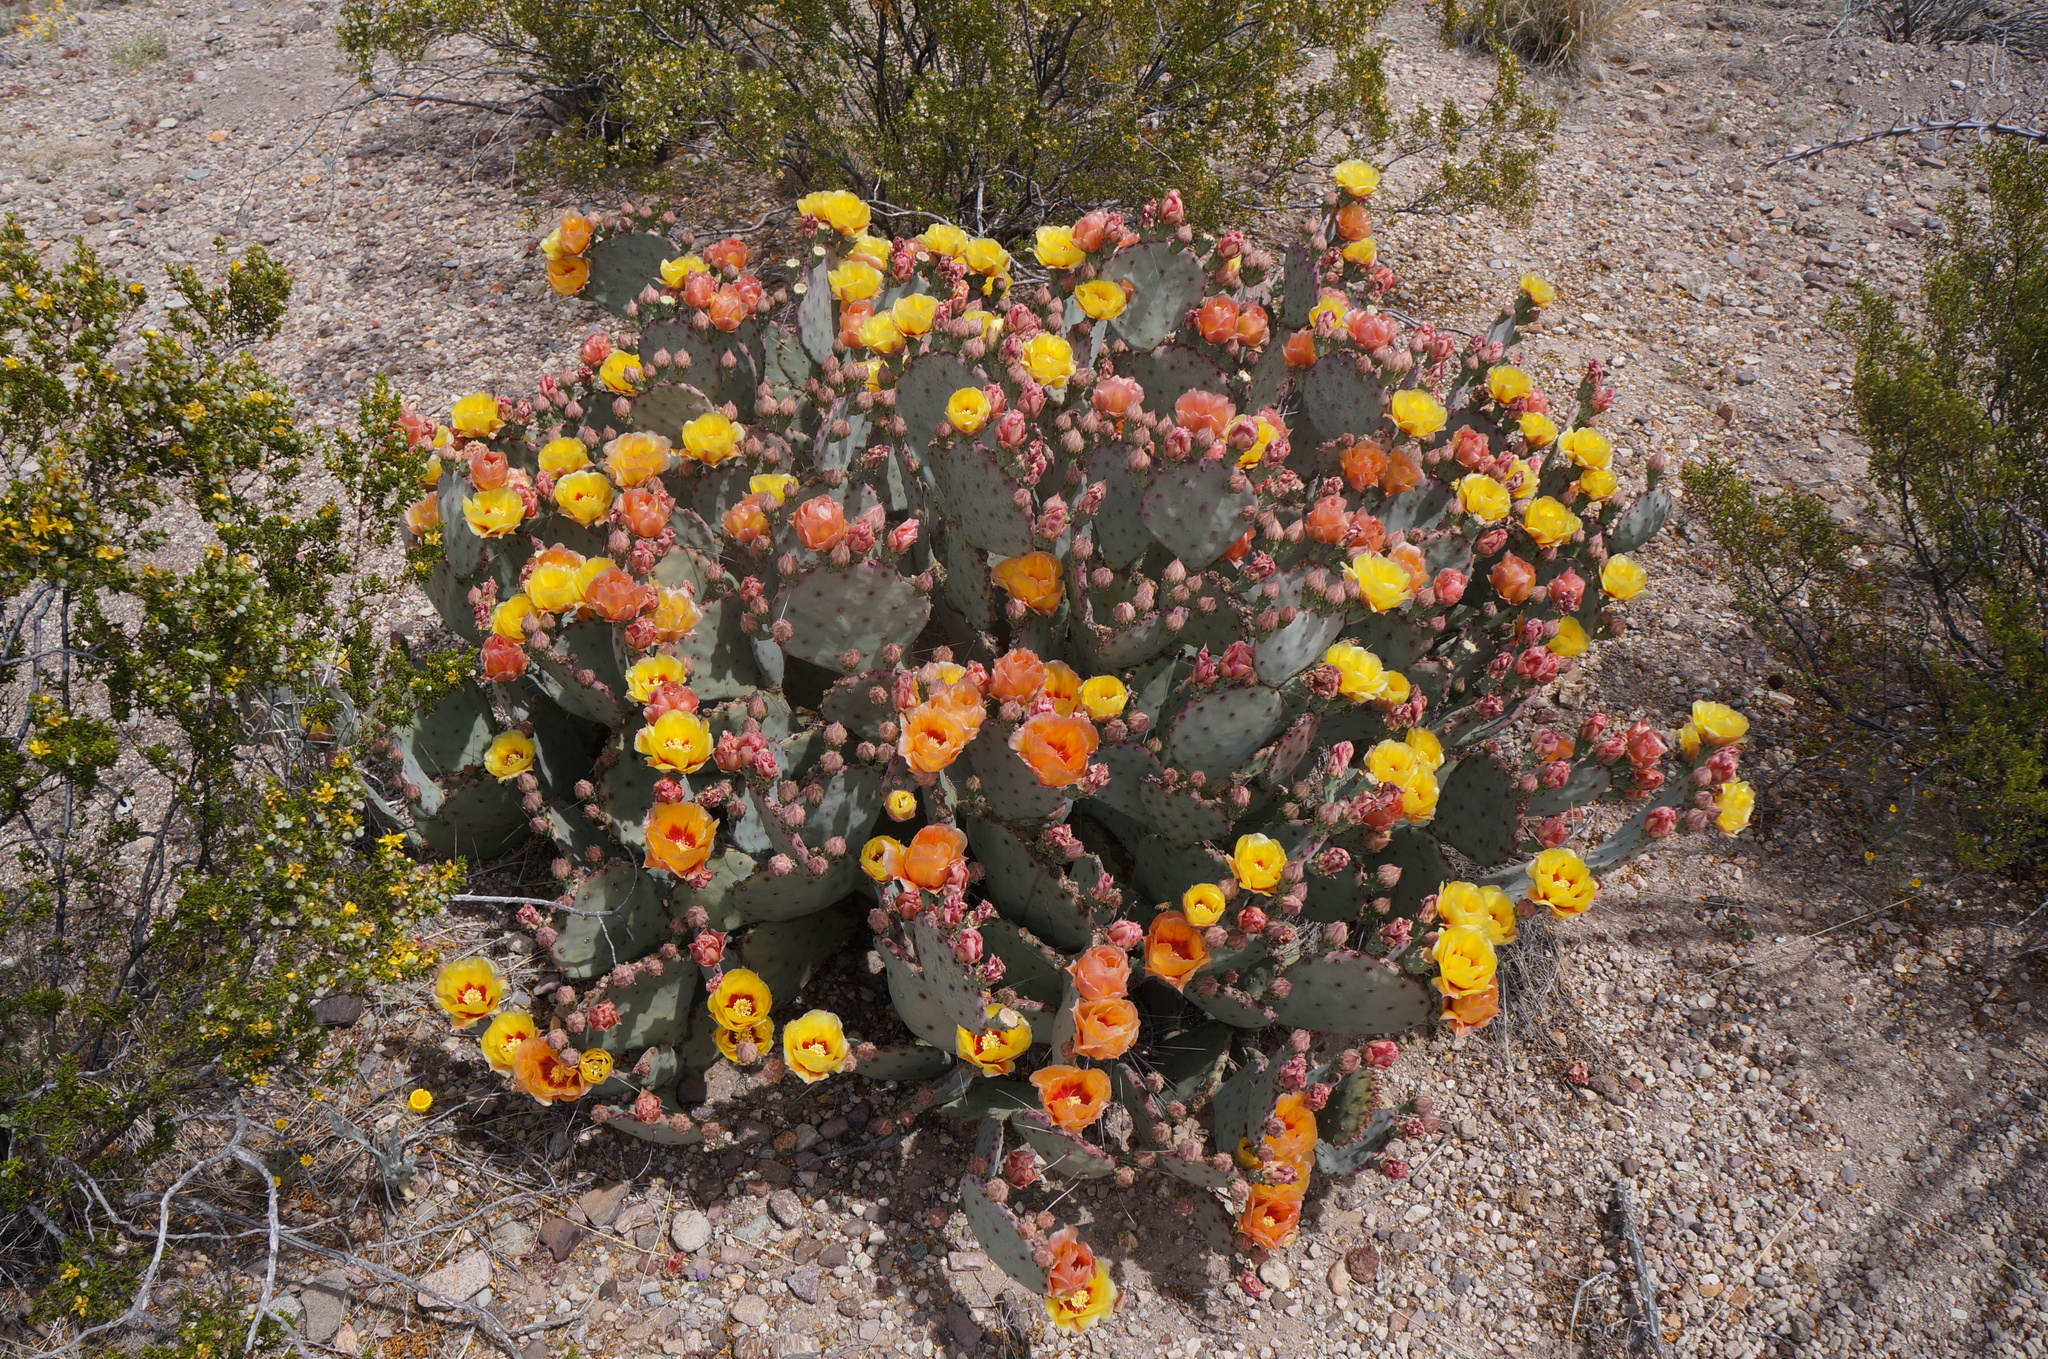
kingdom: Plantae
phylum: Tracheophyta
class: Magnoliopsida
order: Caryophyllales
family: Cactaceae
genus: Opuntia
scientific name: Opuntia phaeacantha
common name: New mexico prickly-pear
